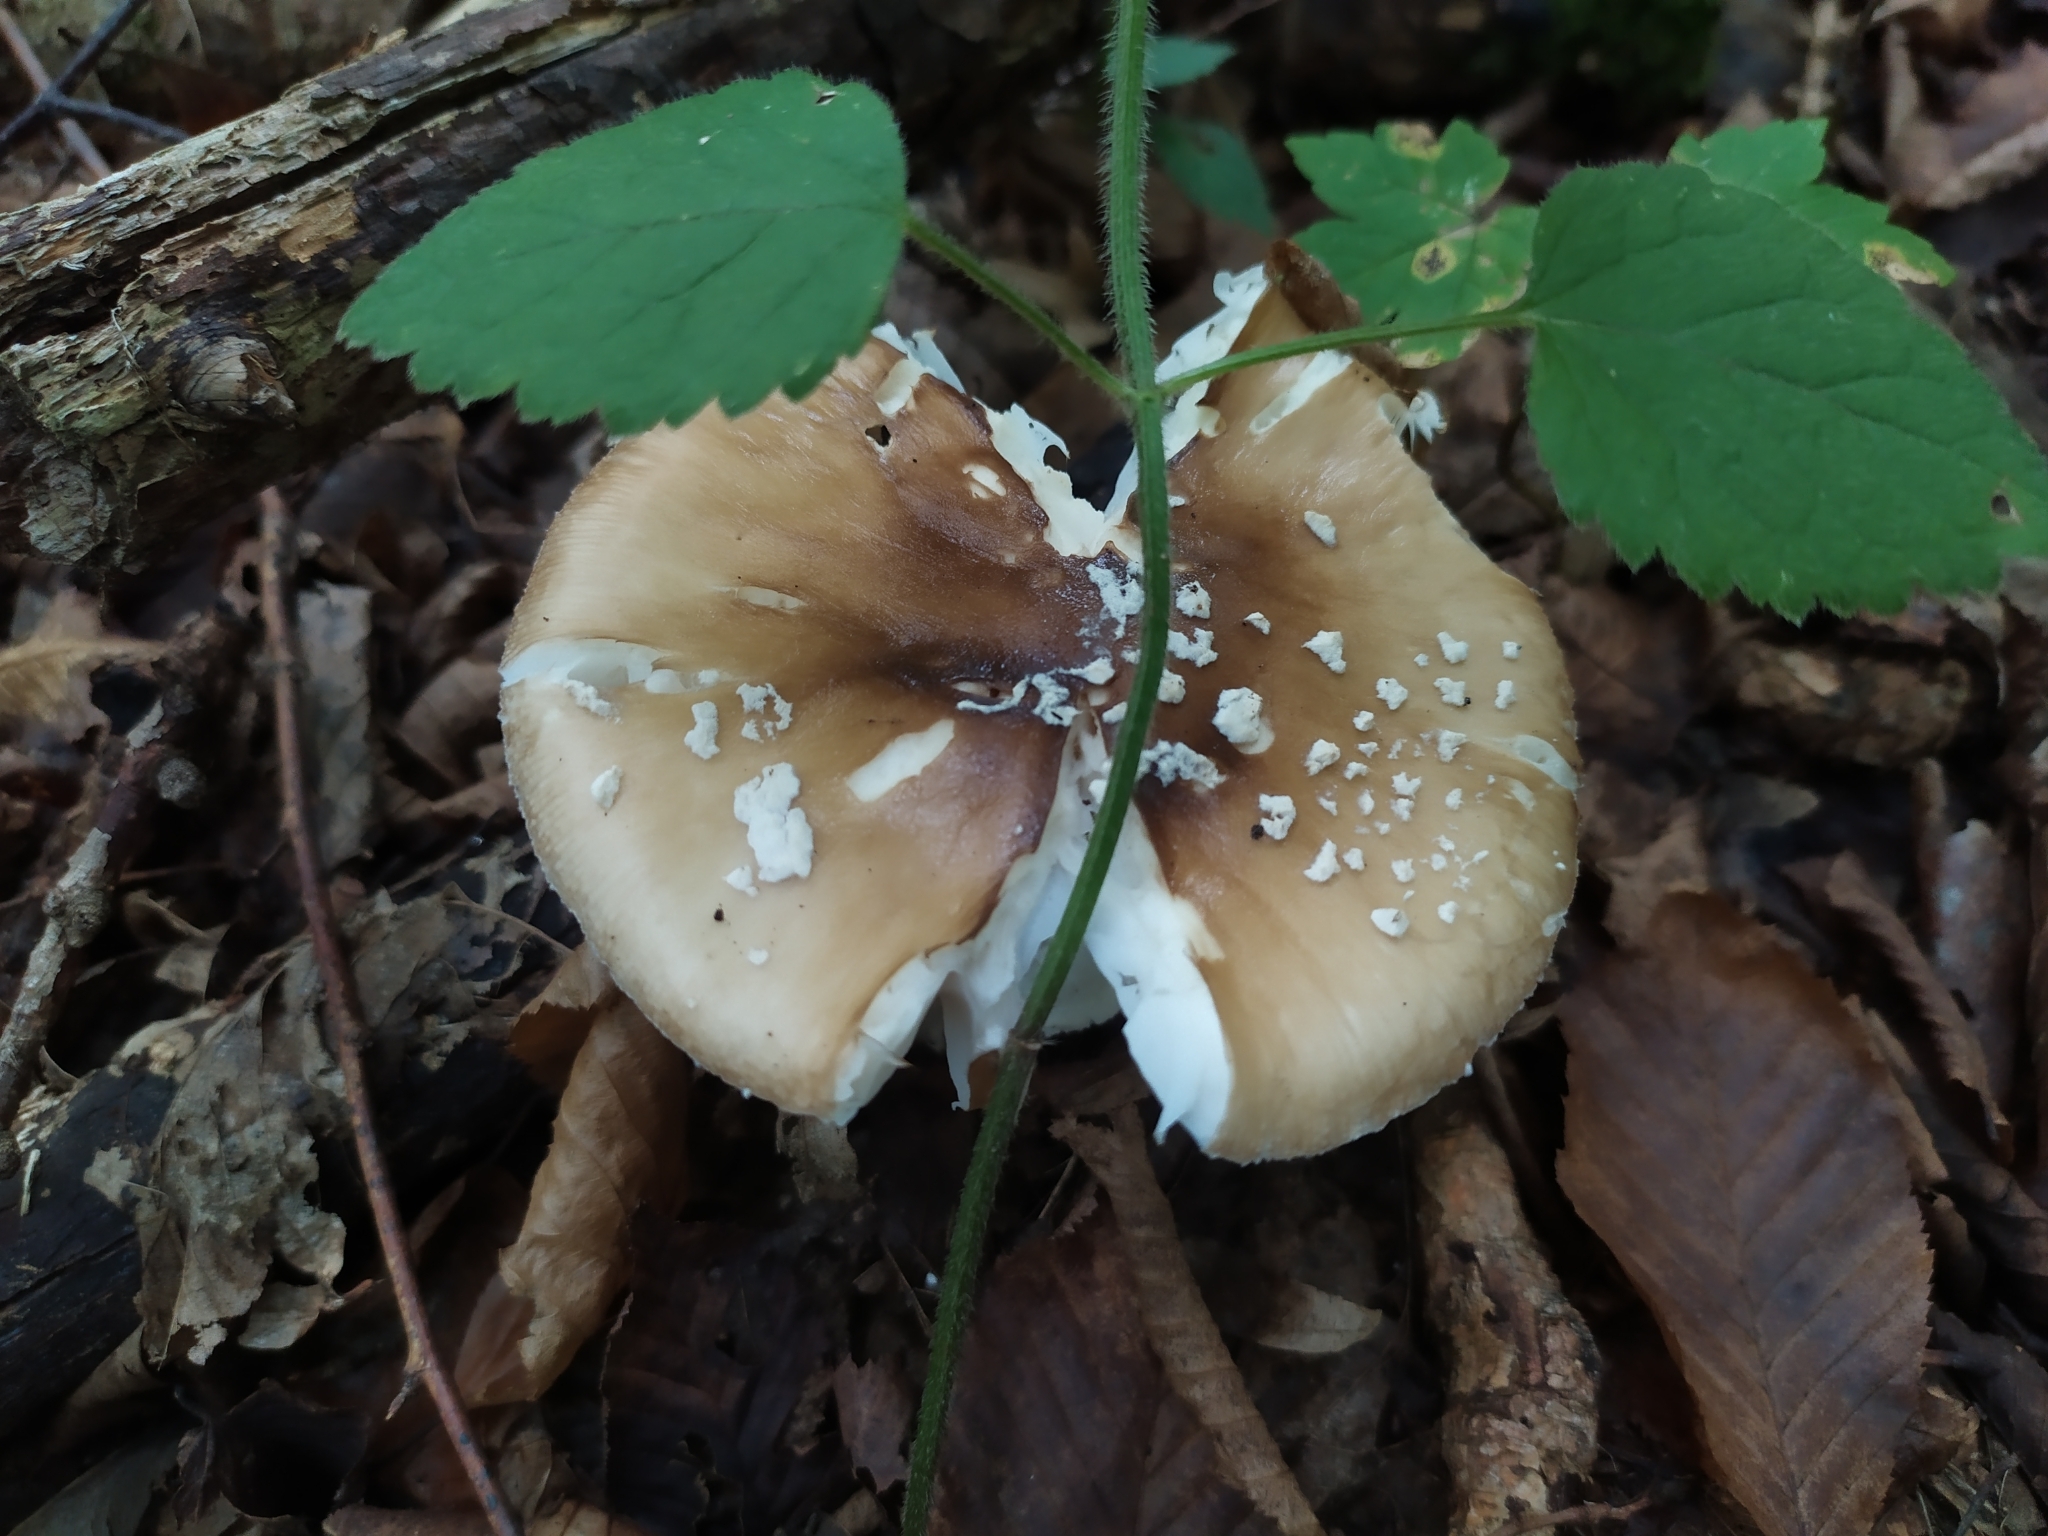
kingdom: Fungi
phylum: Basidiomycota
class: Agaricomycetes
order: Agaricales
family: Amanitaceae
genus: Amanita
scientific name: Amanita pantherina
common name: Panthercap
